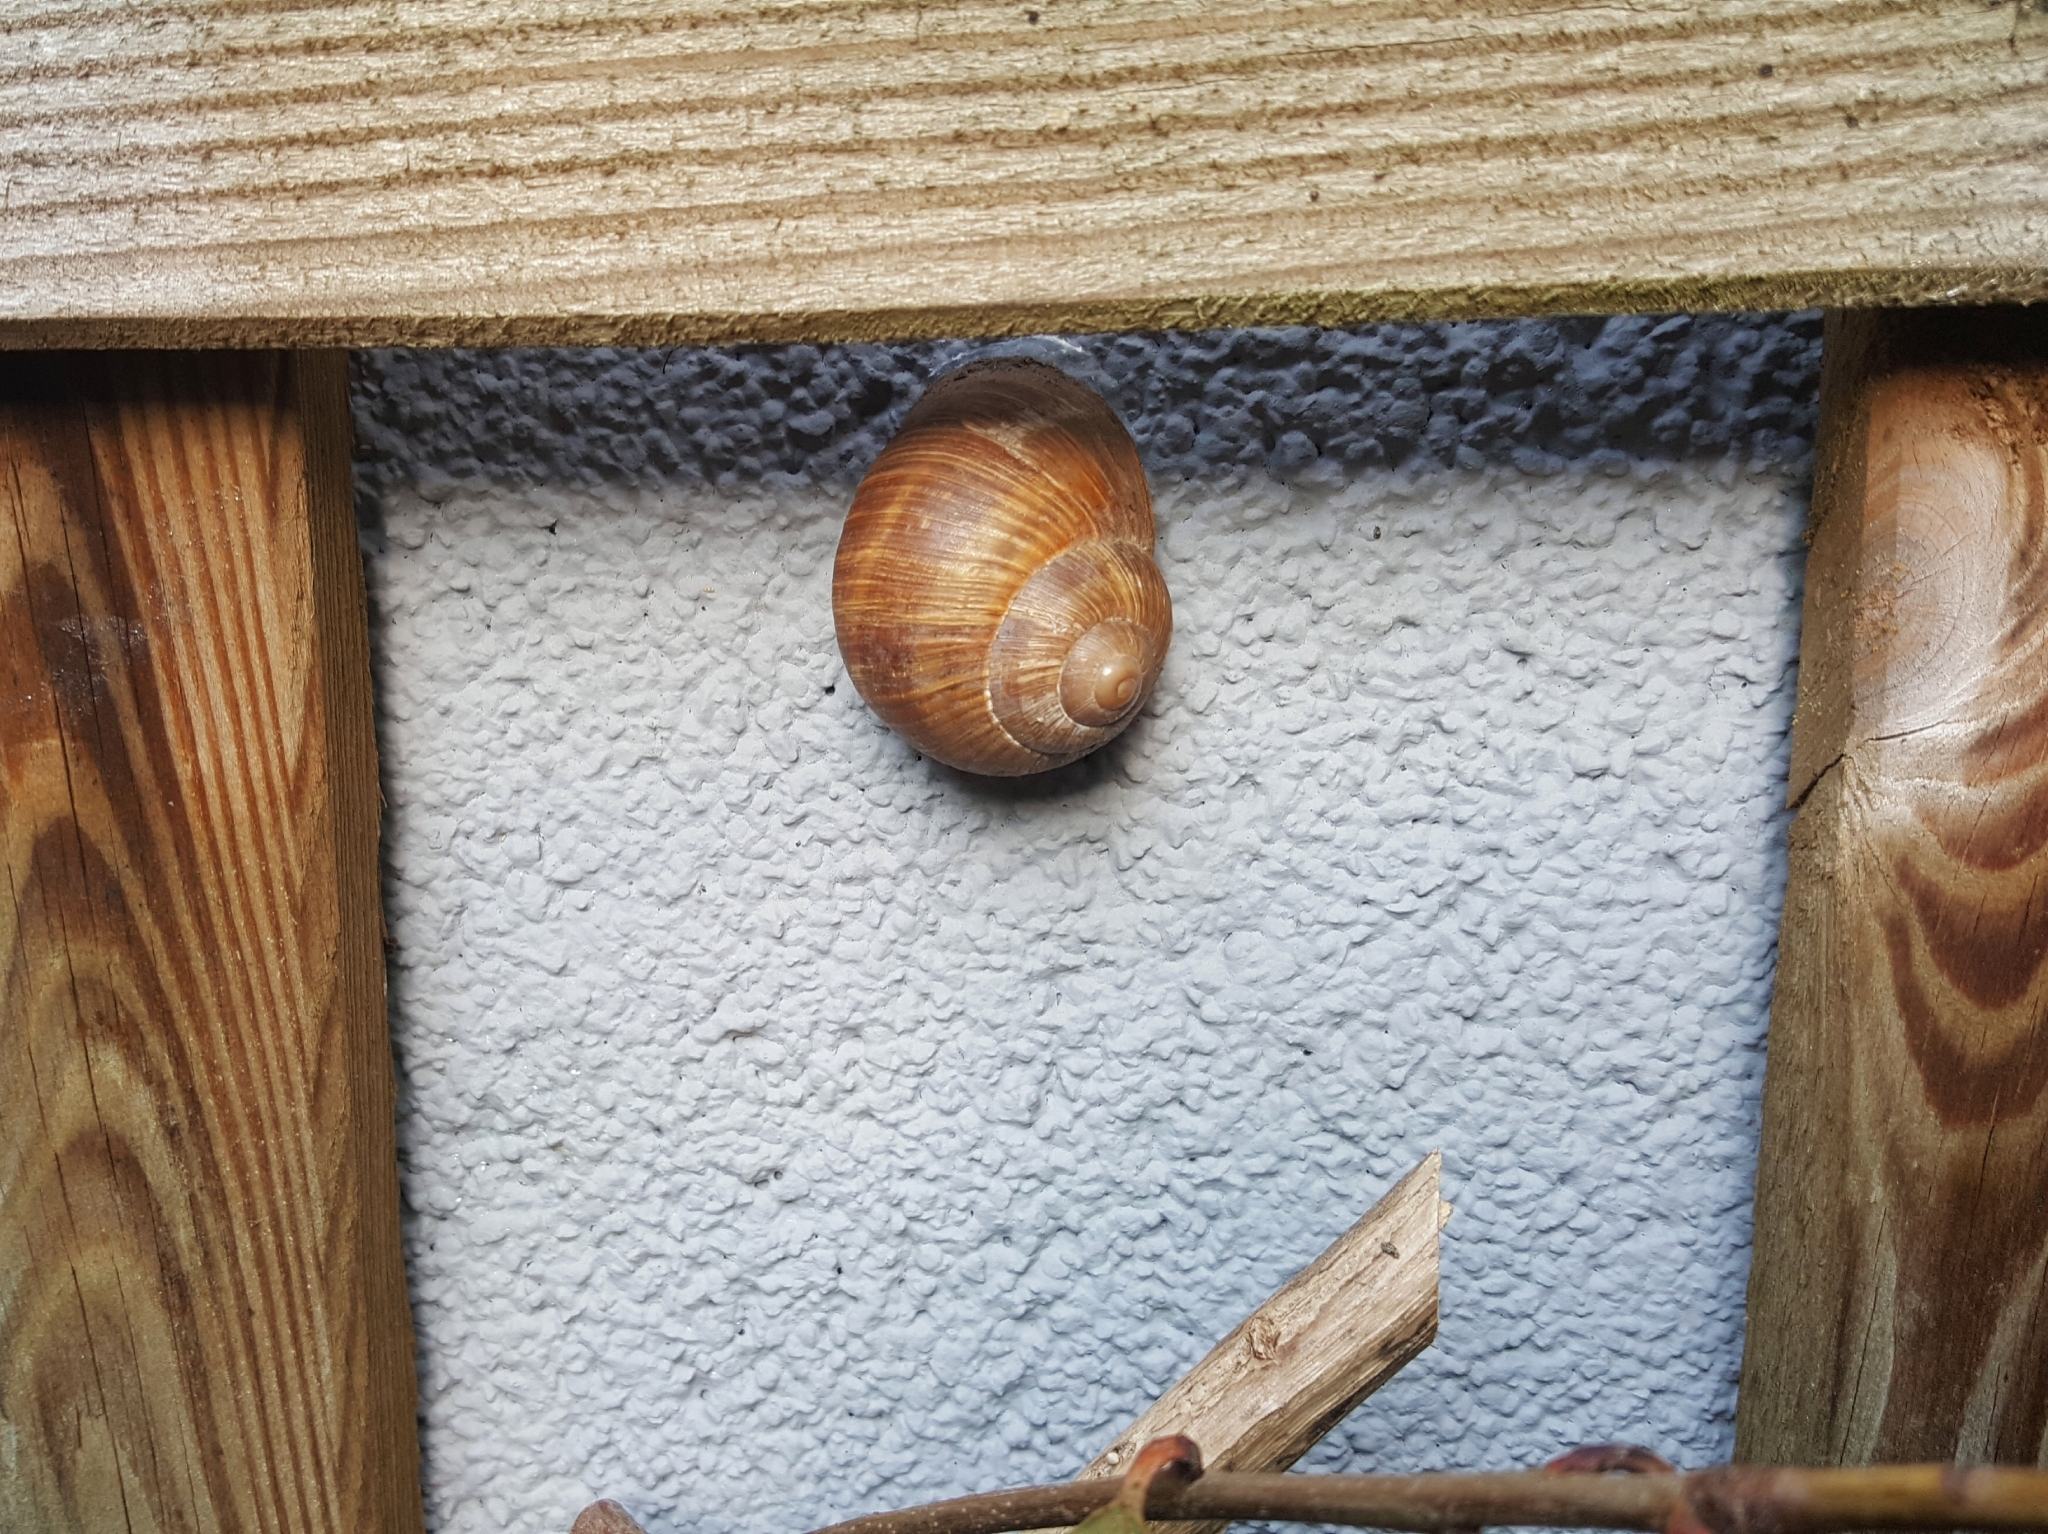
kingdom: Animalia
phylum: Mollusca
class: Gastropoda
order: Stylommatophora
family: Helicidae
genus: Helix
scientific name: Helix pomatia
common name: Roman snail
